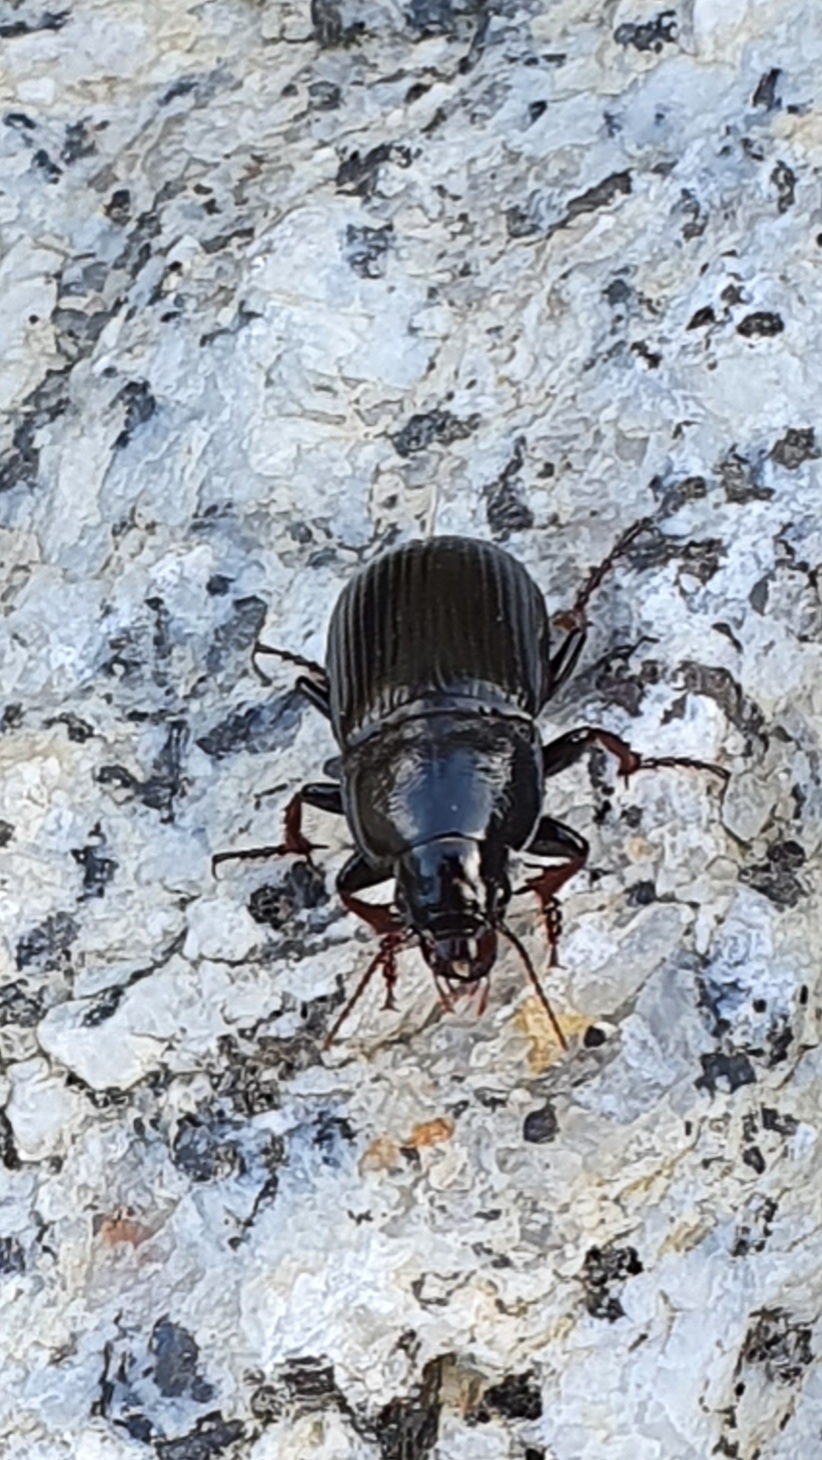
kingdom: Animalia
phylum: Arthropoda
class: Insecta
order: Coleoptera
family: Carabidae
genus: Zabrus
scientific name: Zabrus tenebrioides
